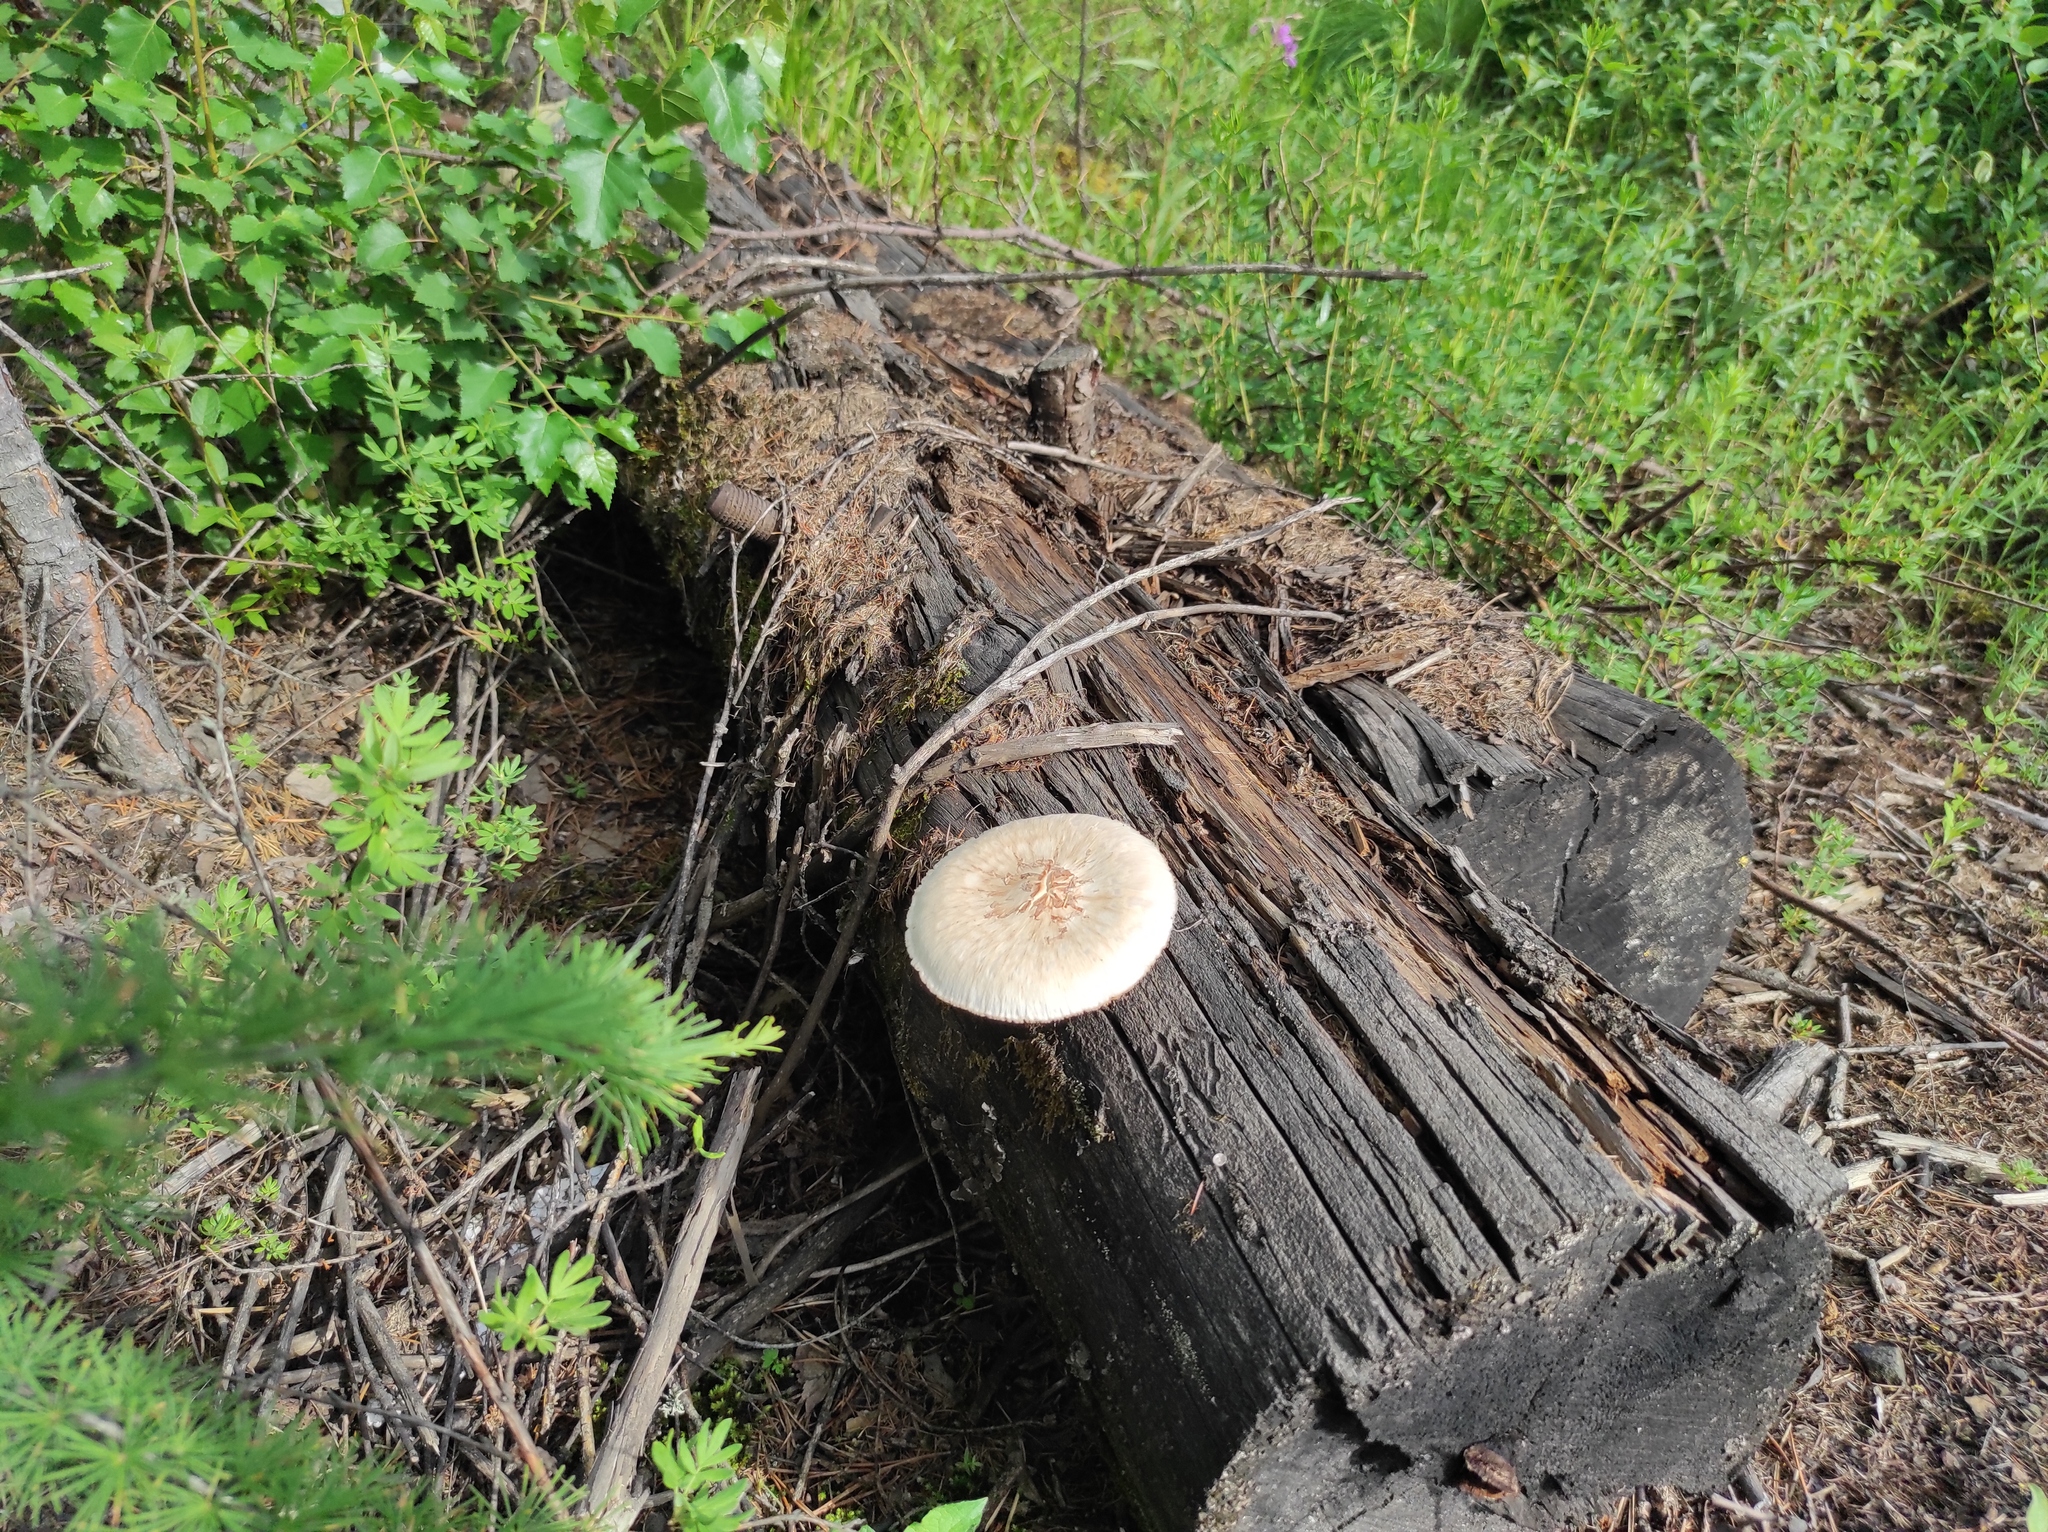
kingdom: Fungi
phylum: Basidiomycota
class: Agaricomycetes
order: Gloeophyllales
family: Gloeophyllaceae
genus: Neolentinus
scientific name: Neolentinus lepideus
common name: Scaly sawgill
